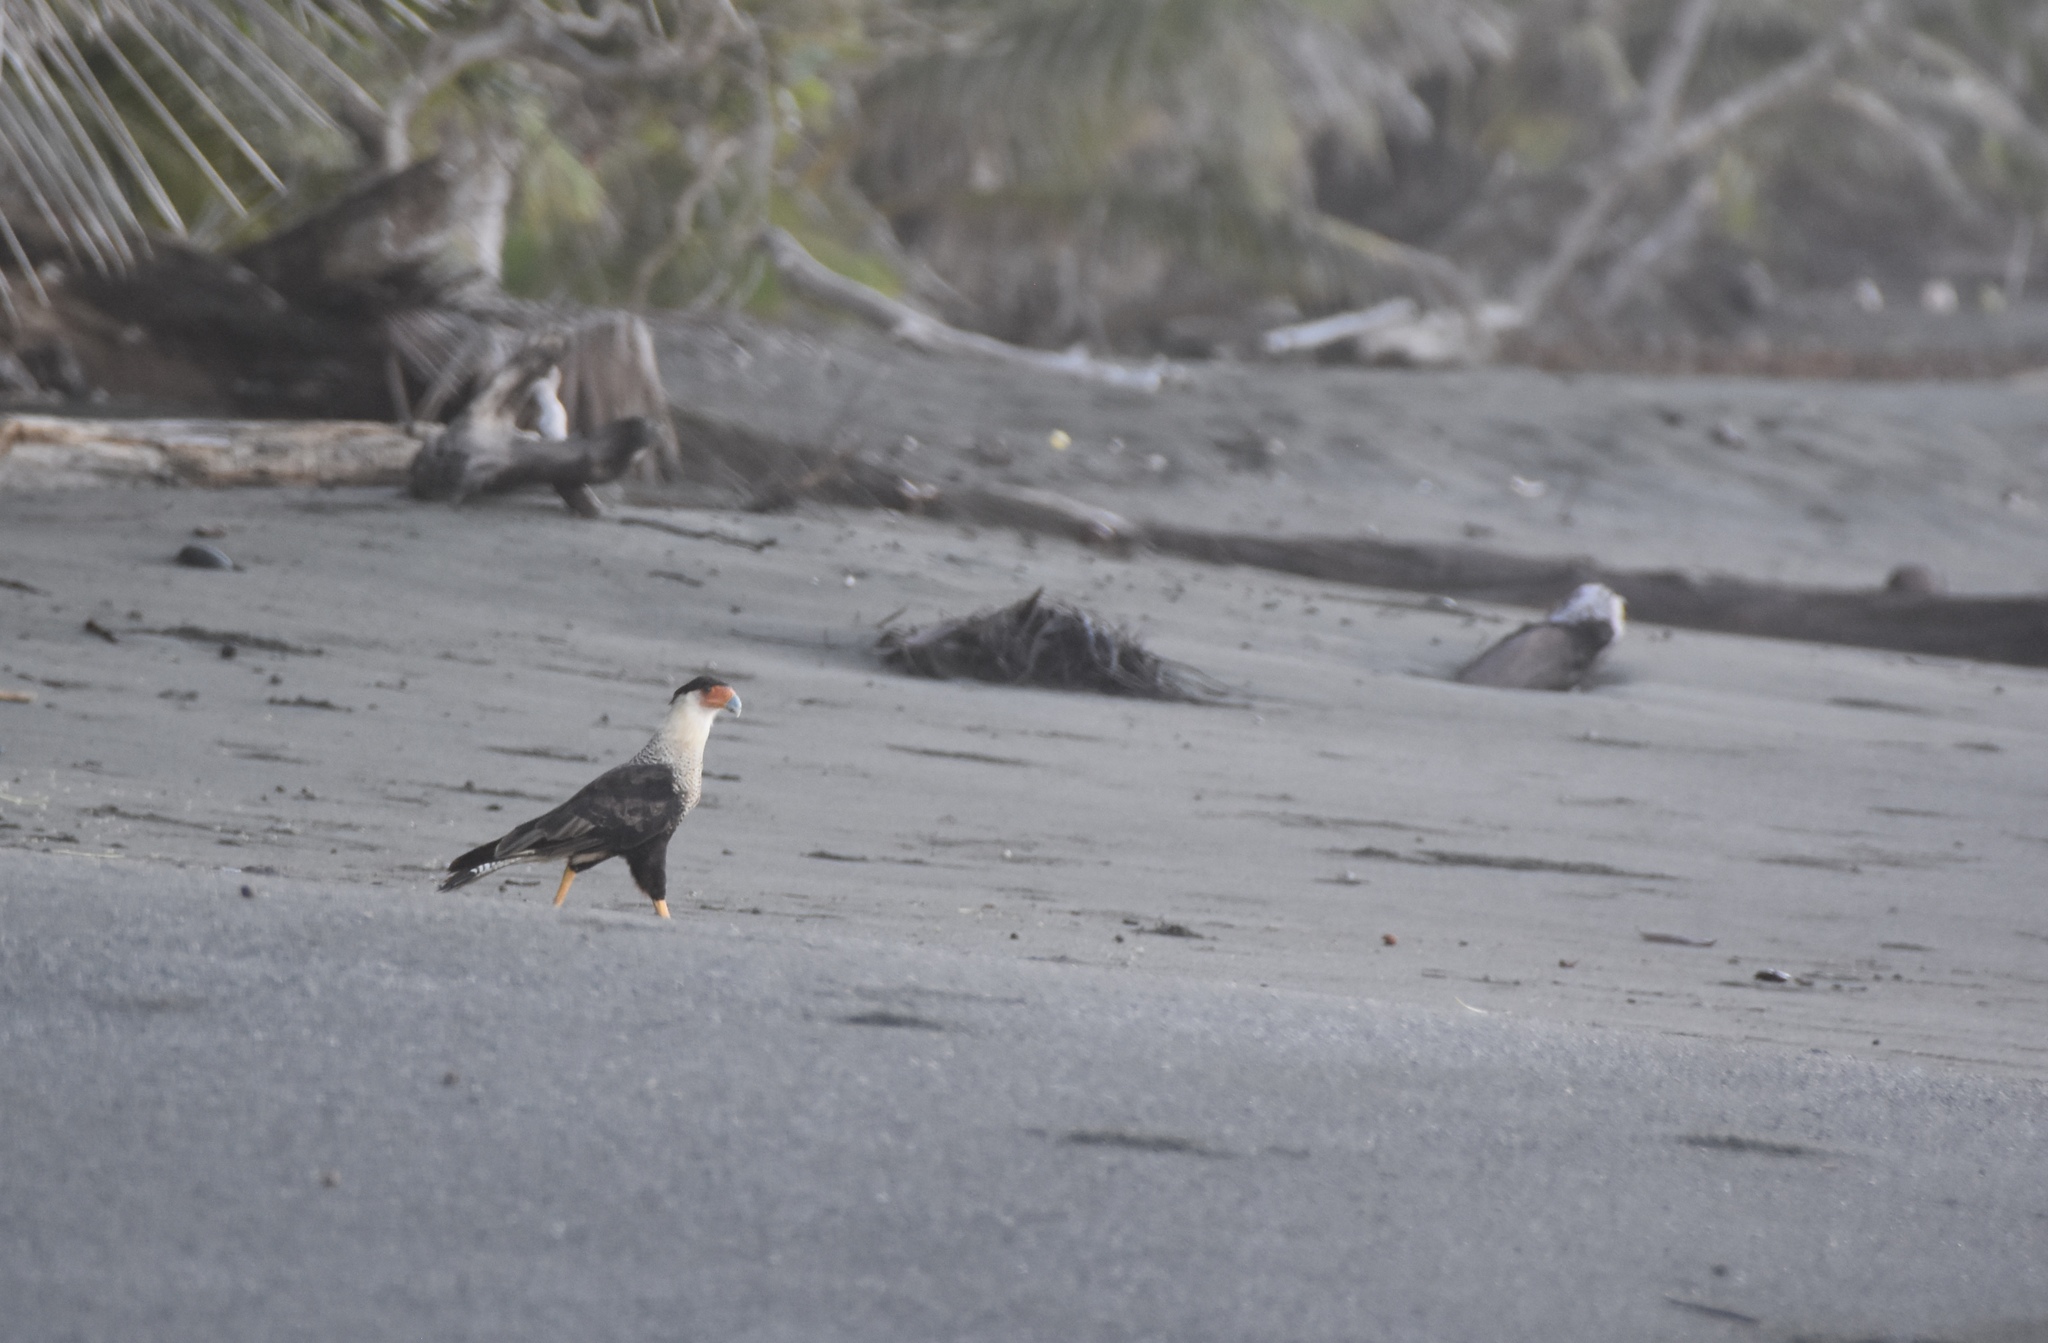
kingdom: Animalia
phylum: Chordata
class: Aves
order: Falconiformes
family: Falconidae
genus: Caracara
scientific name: Caracara plancus
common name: Southern caracara
